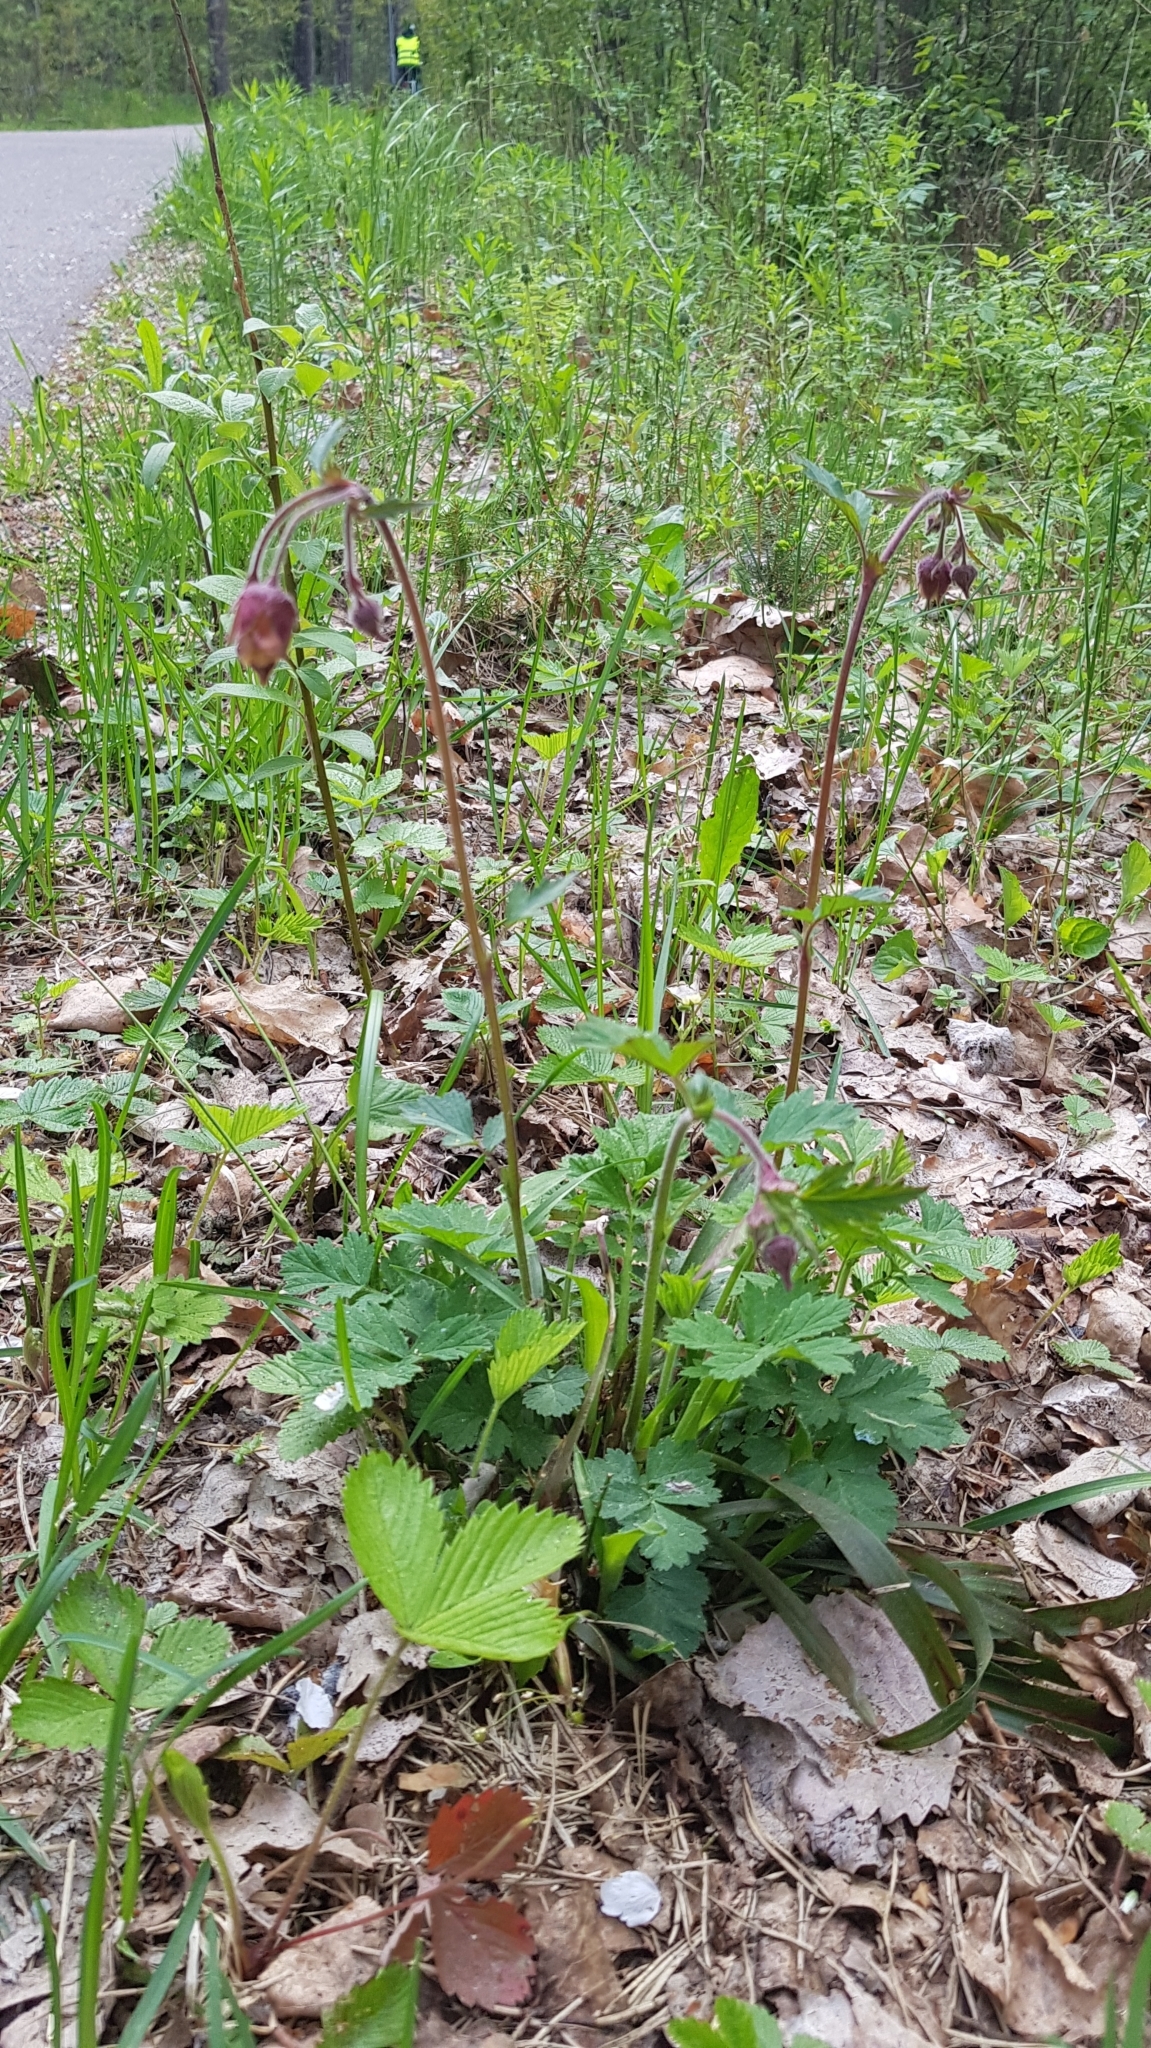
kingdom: Plantae
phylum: Tracheophyta
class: Magnoliopsida
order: Rosales
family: Rosaceae
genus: Geum
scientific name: Geum rivale
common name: Water avens
